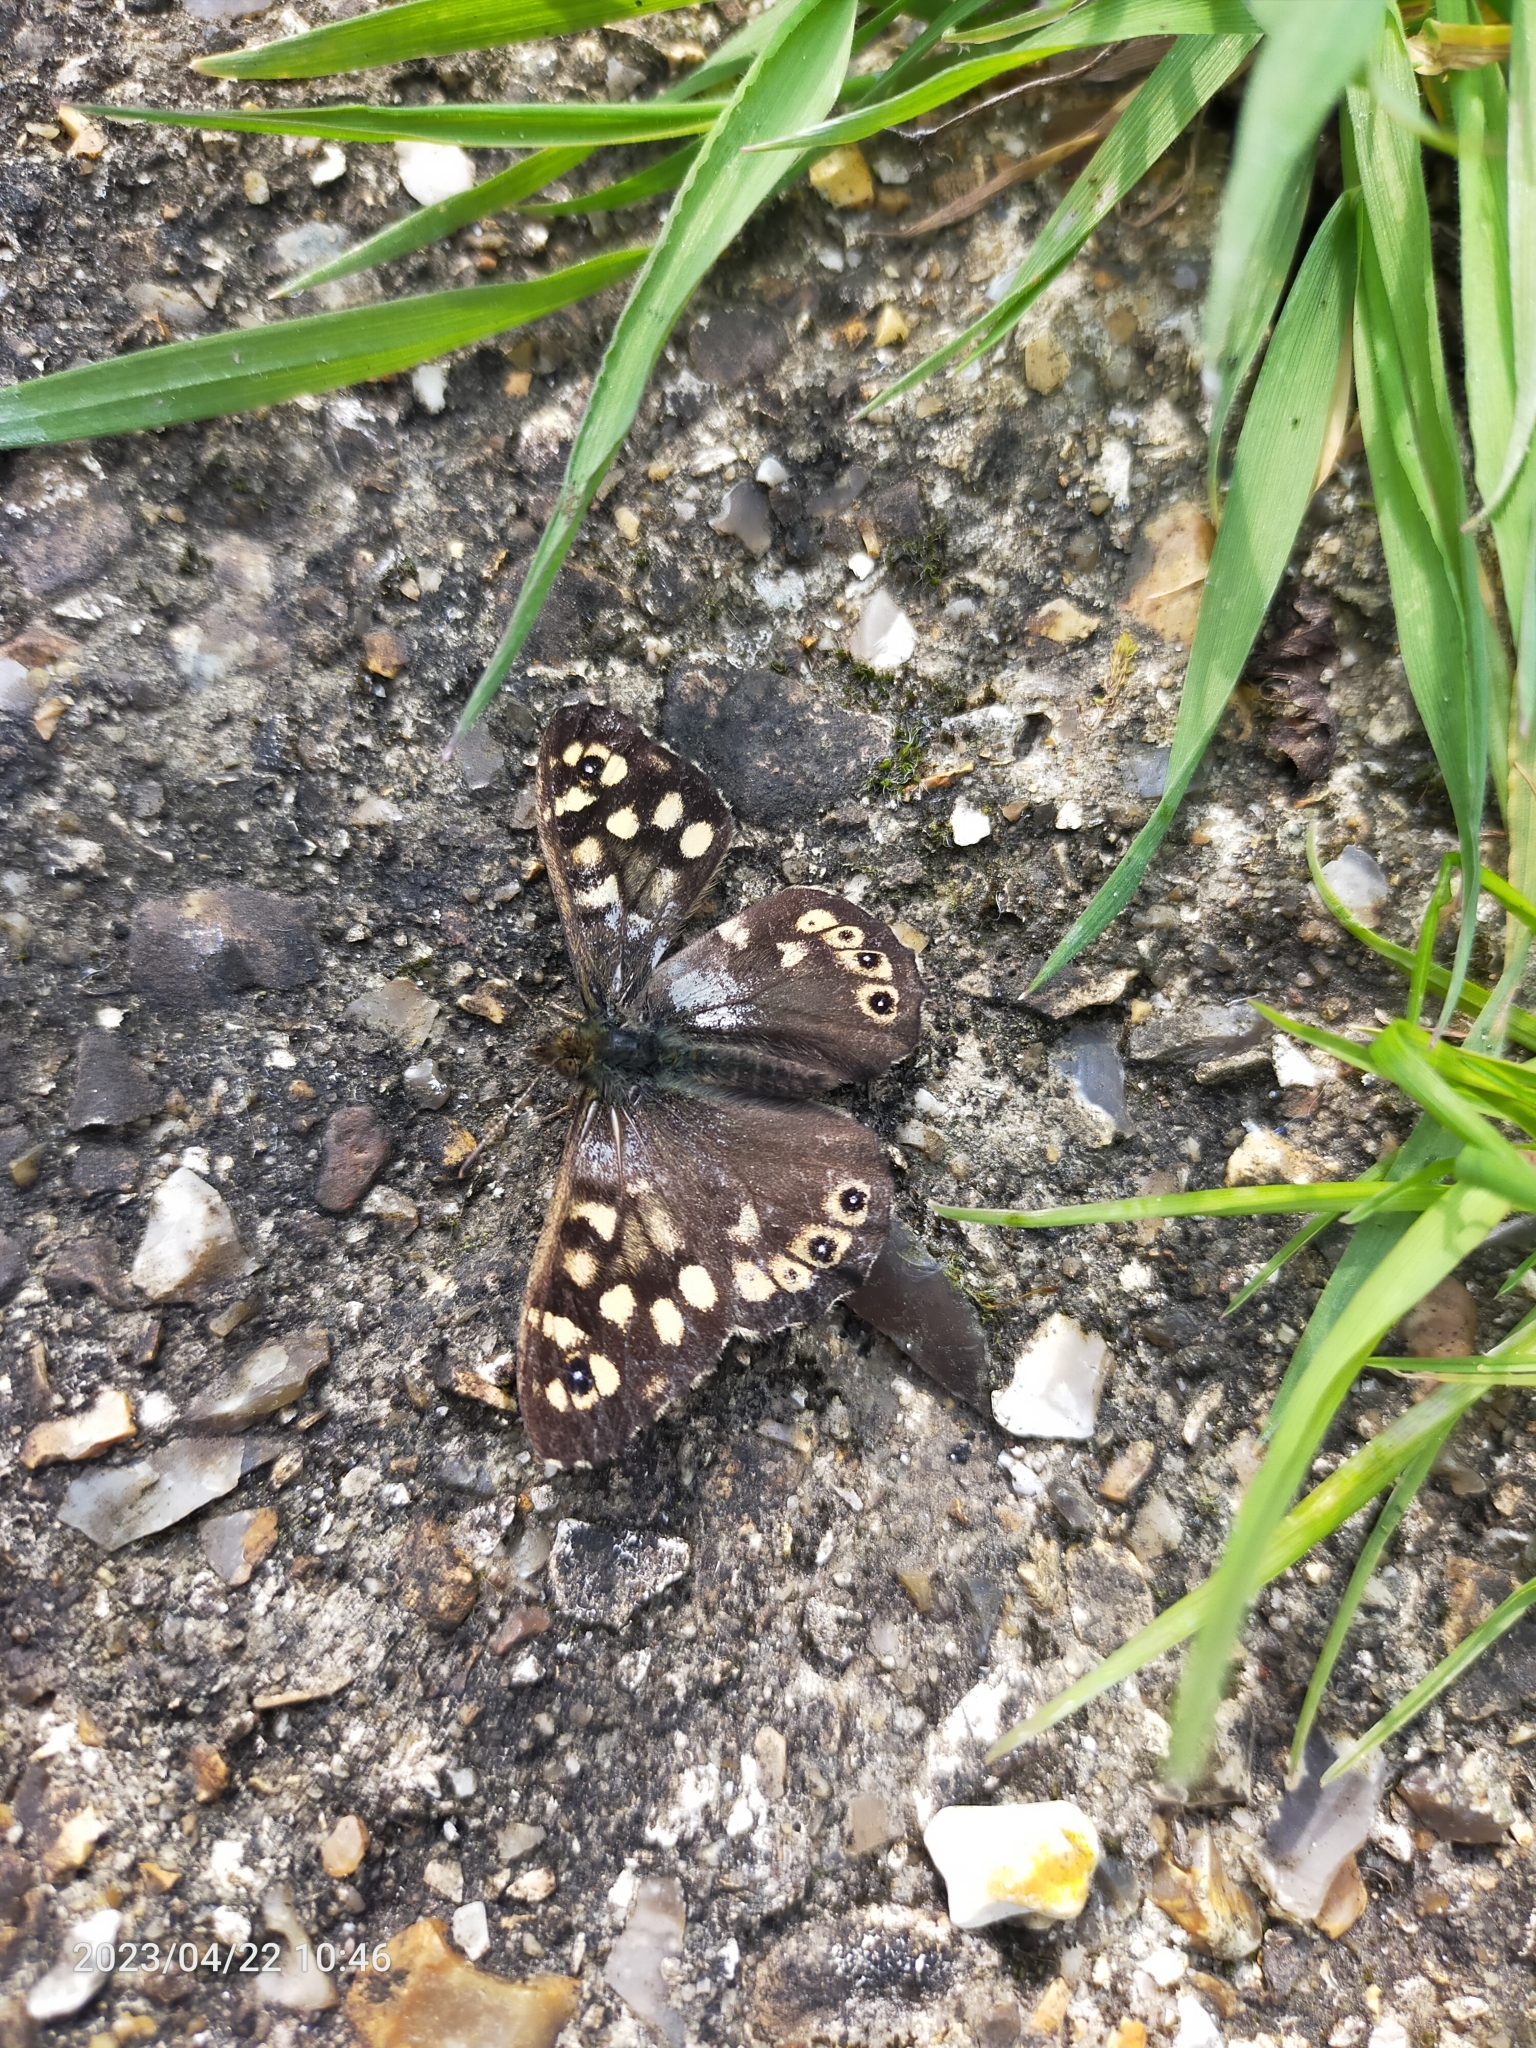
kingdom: Animalia
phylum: Arthropoda
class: Insecta
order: Lepidoptera
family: Nymphalidae
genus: Pararge
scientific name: Pararge aegeria
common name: Speckled wood
